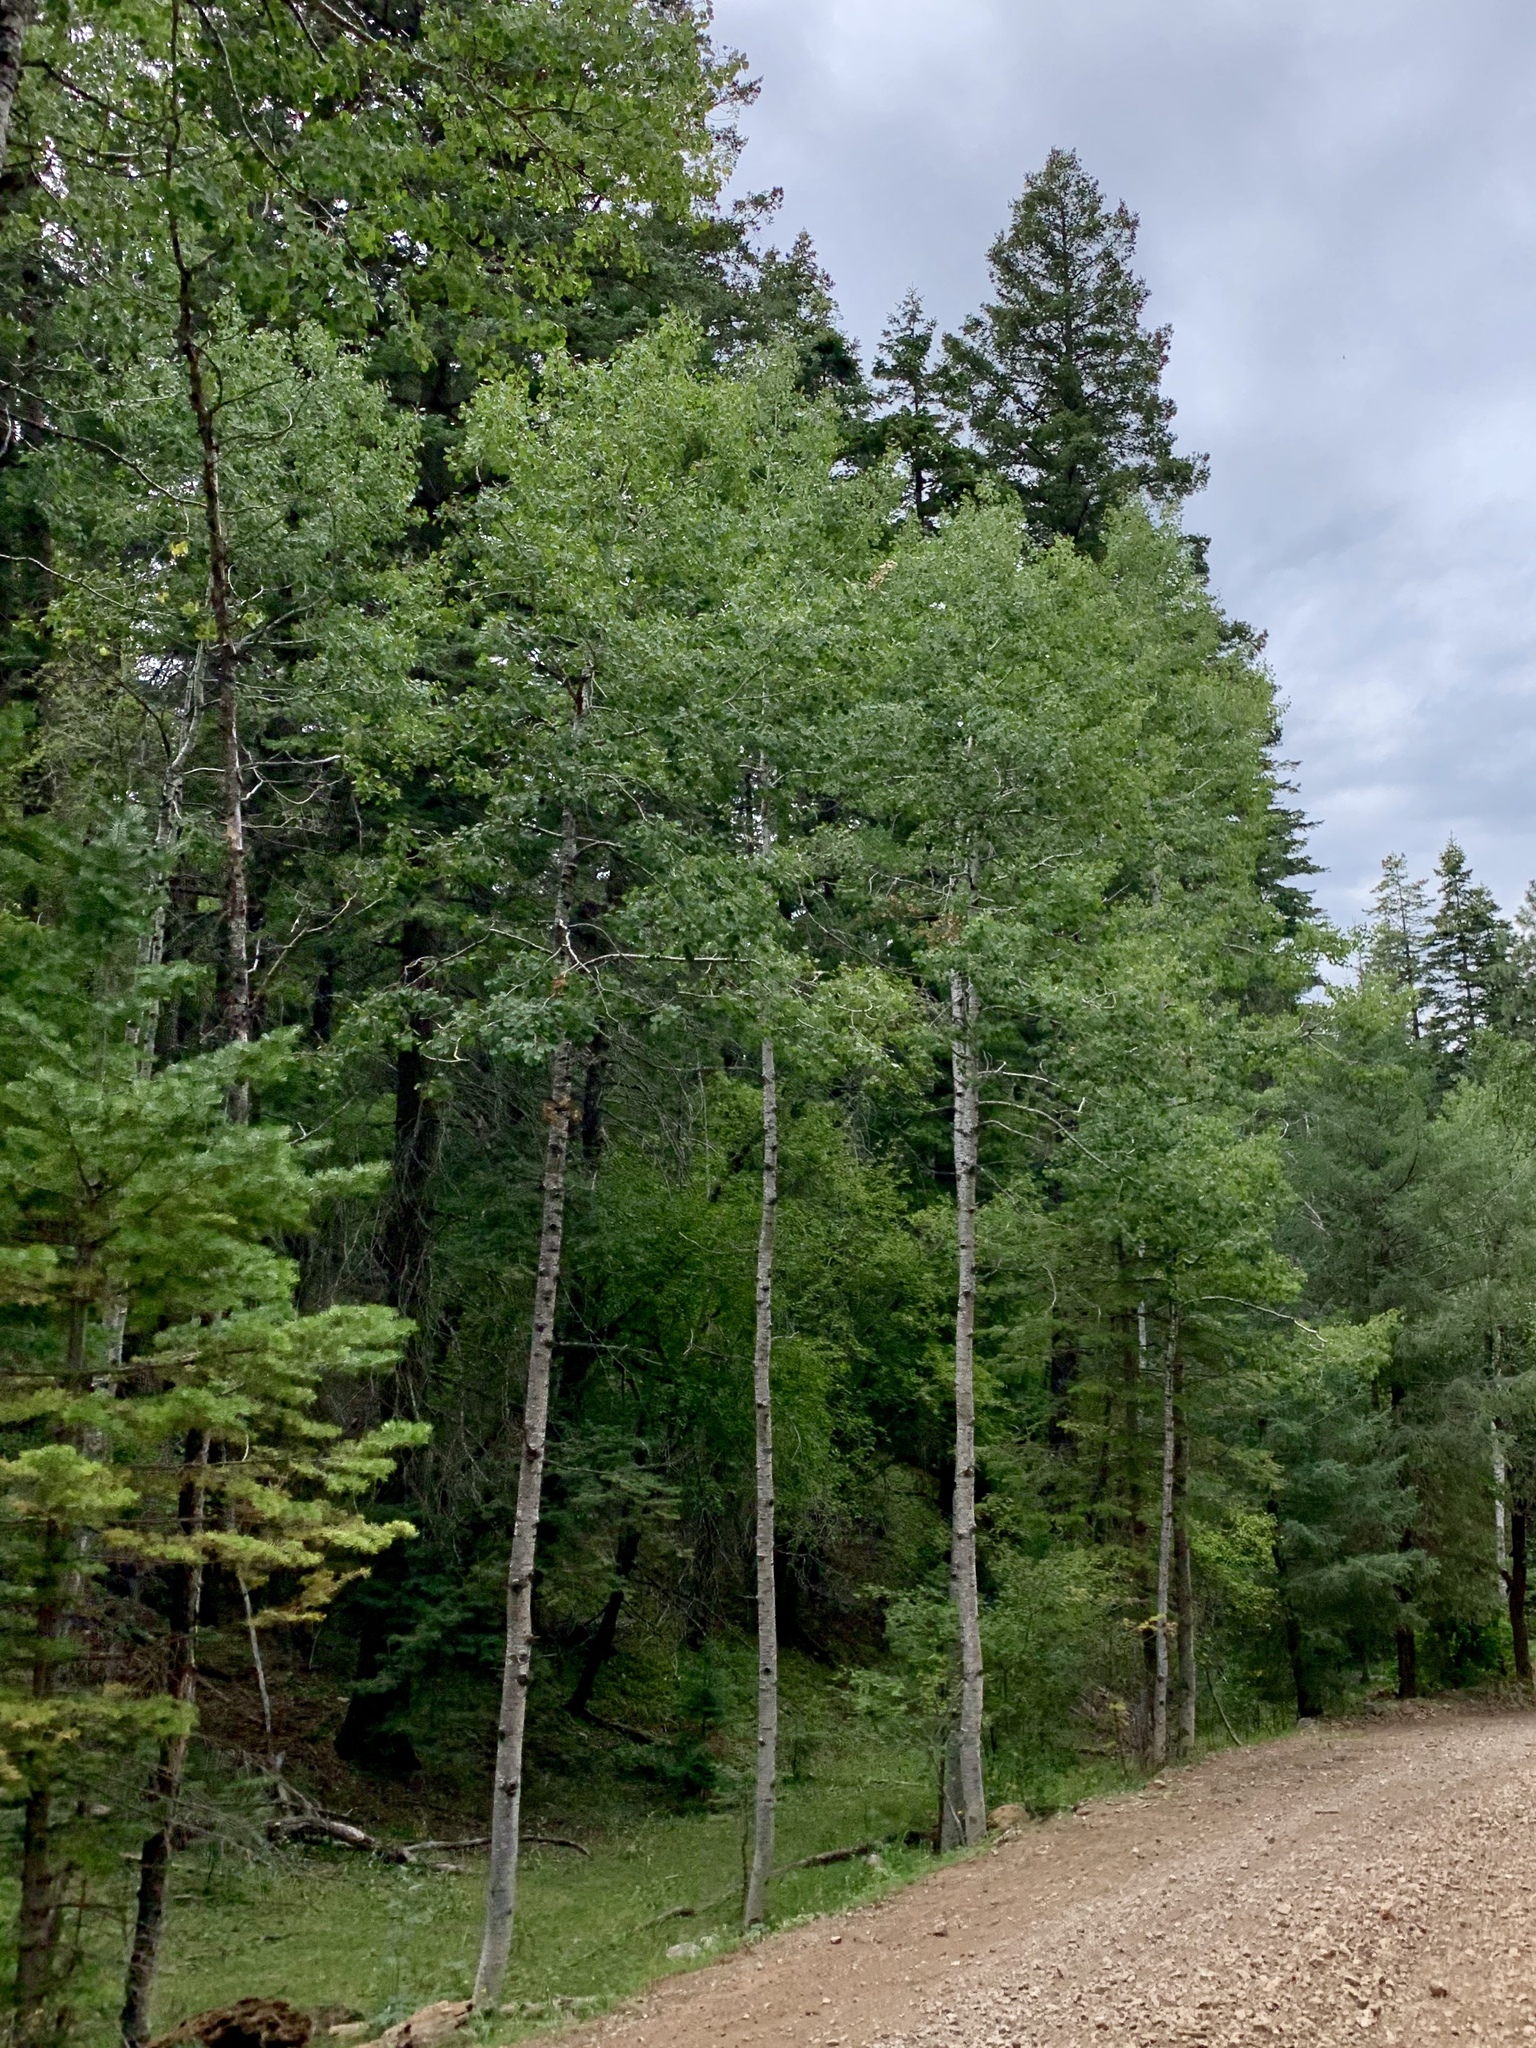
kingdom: Plantae
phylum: Tracheophyta
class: Magnoliopsida
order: Malpighiales
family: Salicaceae
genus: Populus
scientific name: Populus tremuloides
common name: Quaking aspen
